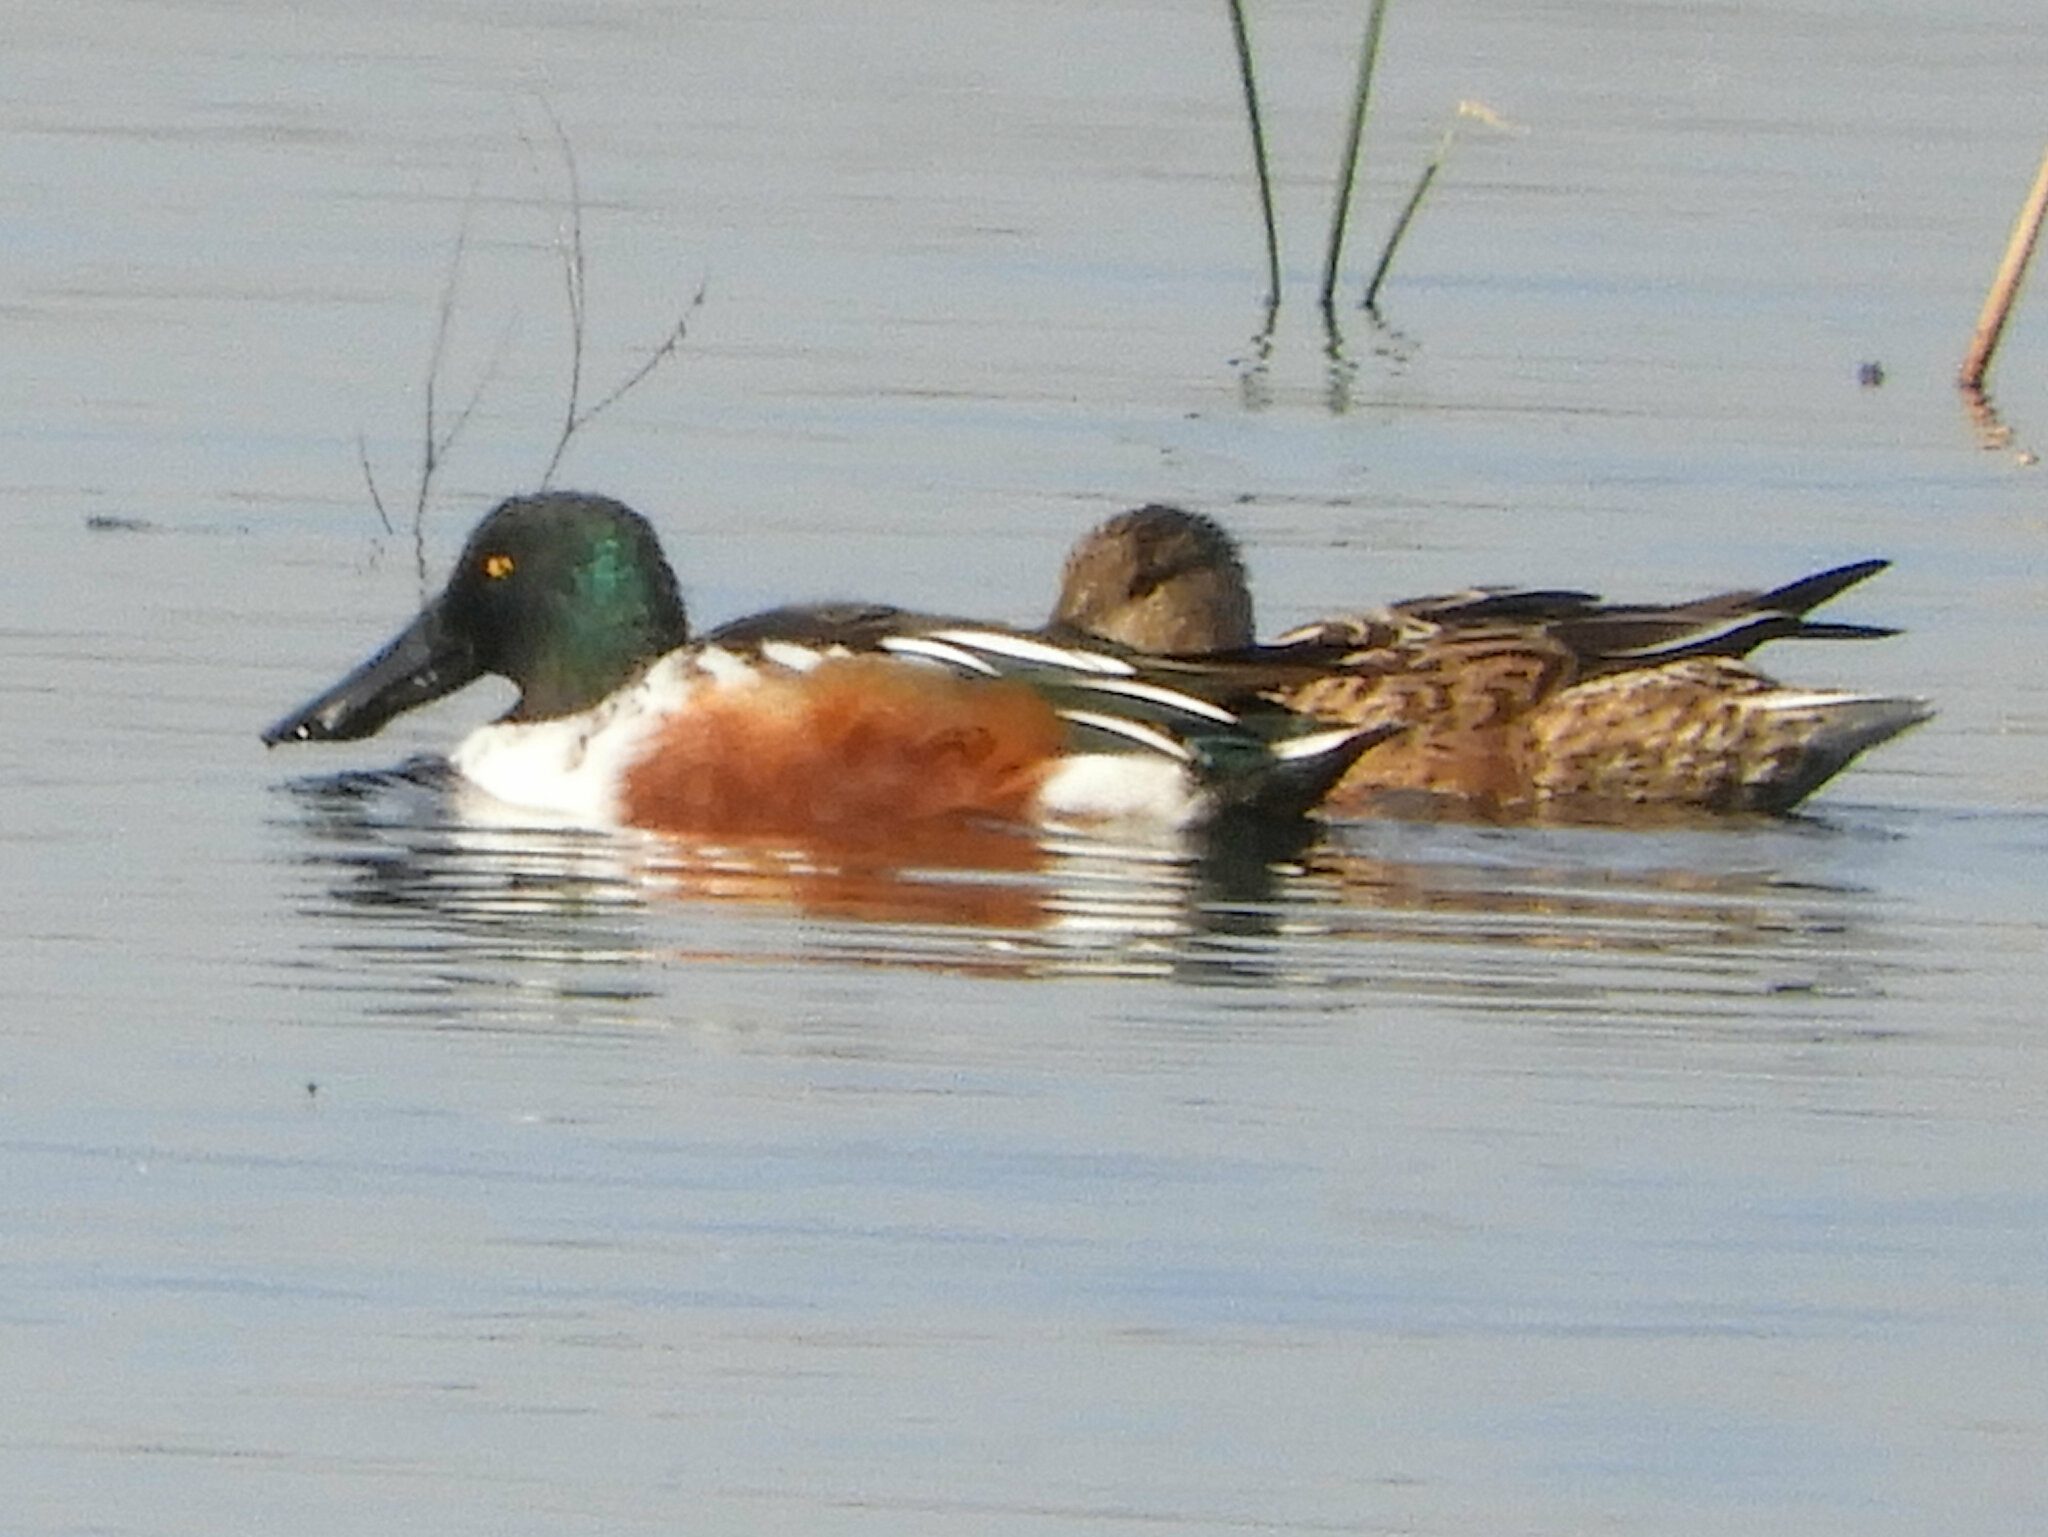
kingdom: Animalia
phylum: Chordata
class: Aves
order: Anseriformes
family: Anatidae
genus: Spatula
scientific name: Spatula clypeata
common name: Northern shoveler
